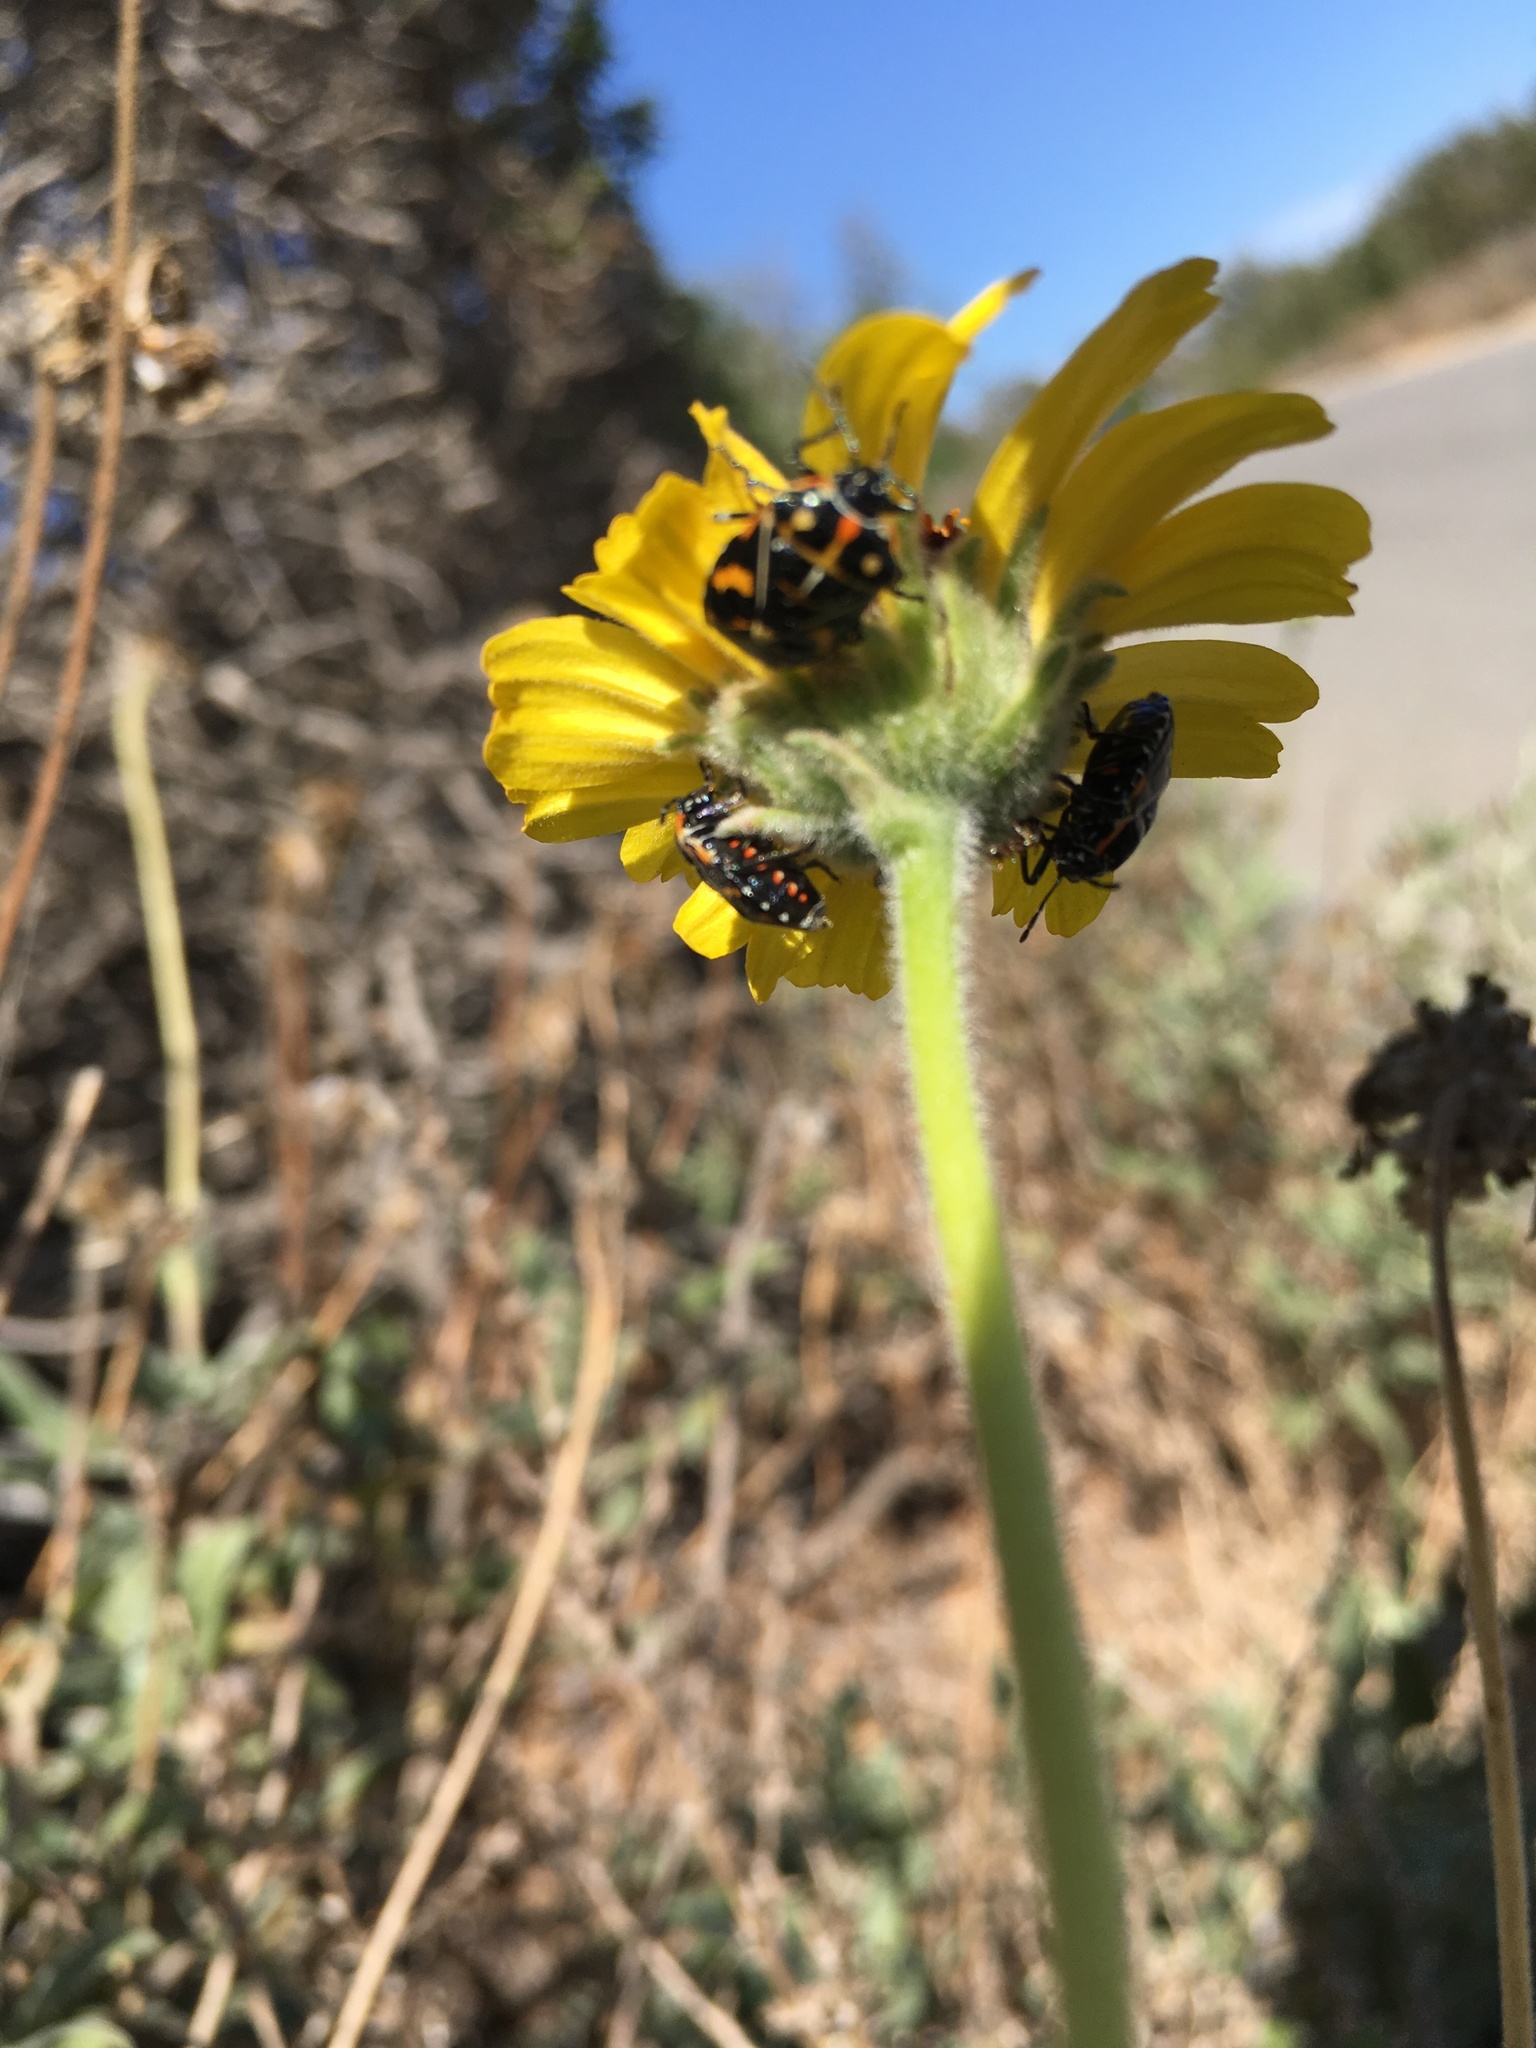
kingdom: Animalia
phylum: Arthropoda
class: Insecta
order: Hemiptera
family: Pentatomidae
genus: Murgantia
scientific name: Murgantia histrionica
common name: Harlequin bug
